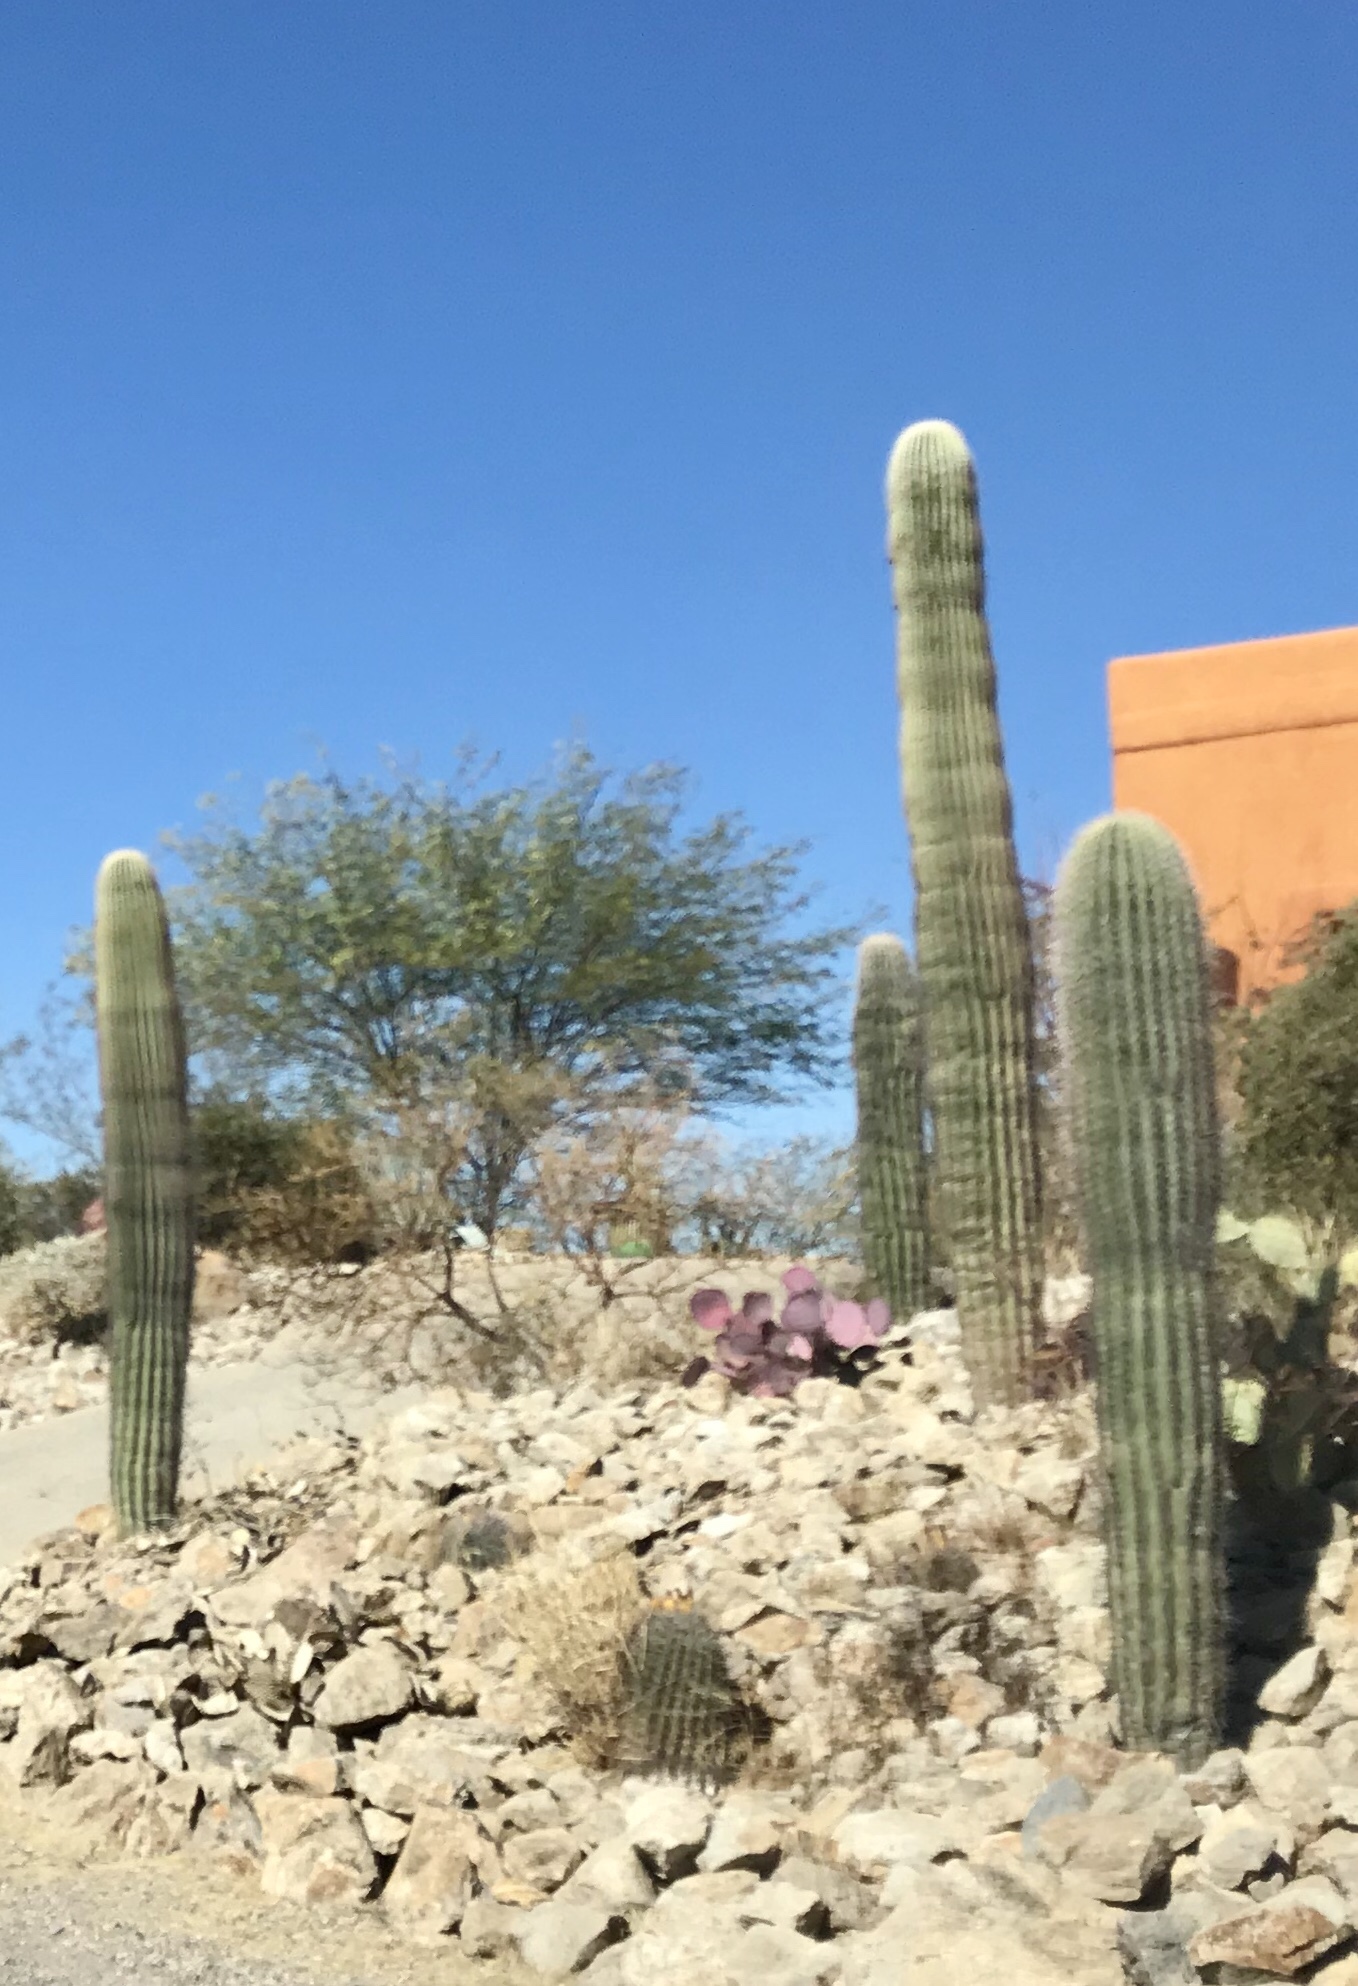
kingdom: Plantae
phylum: Tracheophyta
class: Magnoliopsida
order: Caryophyllales
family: Cactaceae
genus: Carnegiea
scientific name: Carnegiea gigantea
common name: Saguaro
